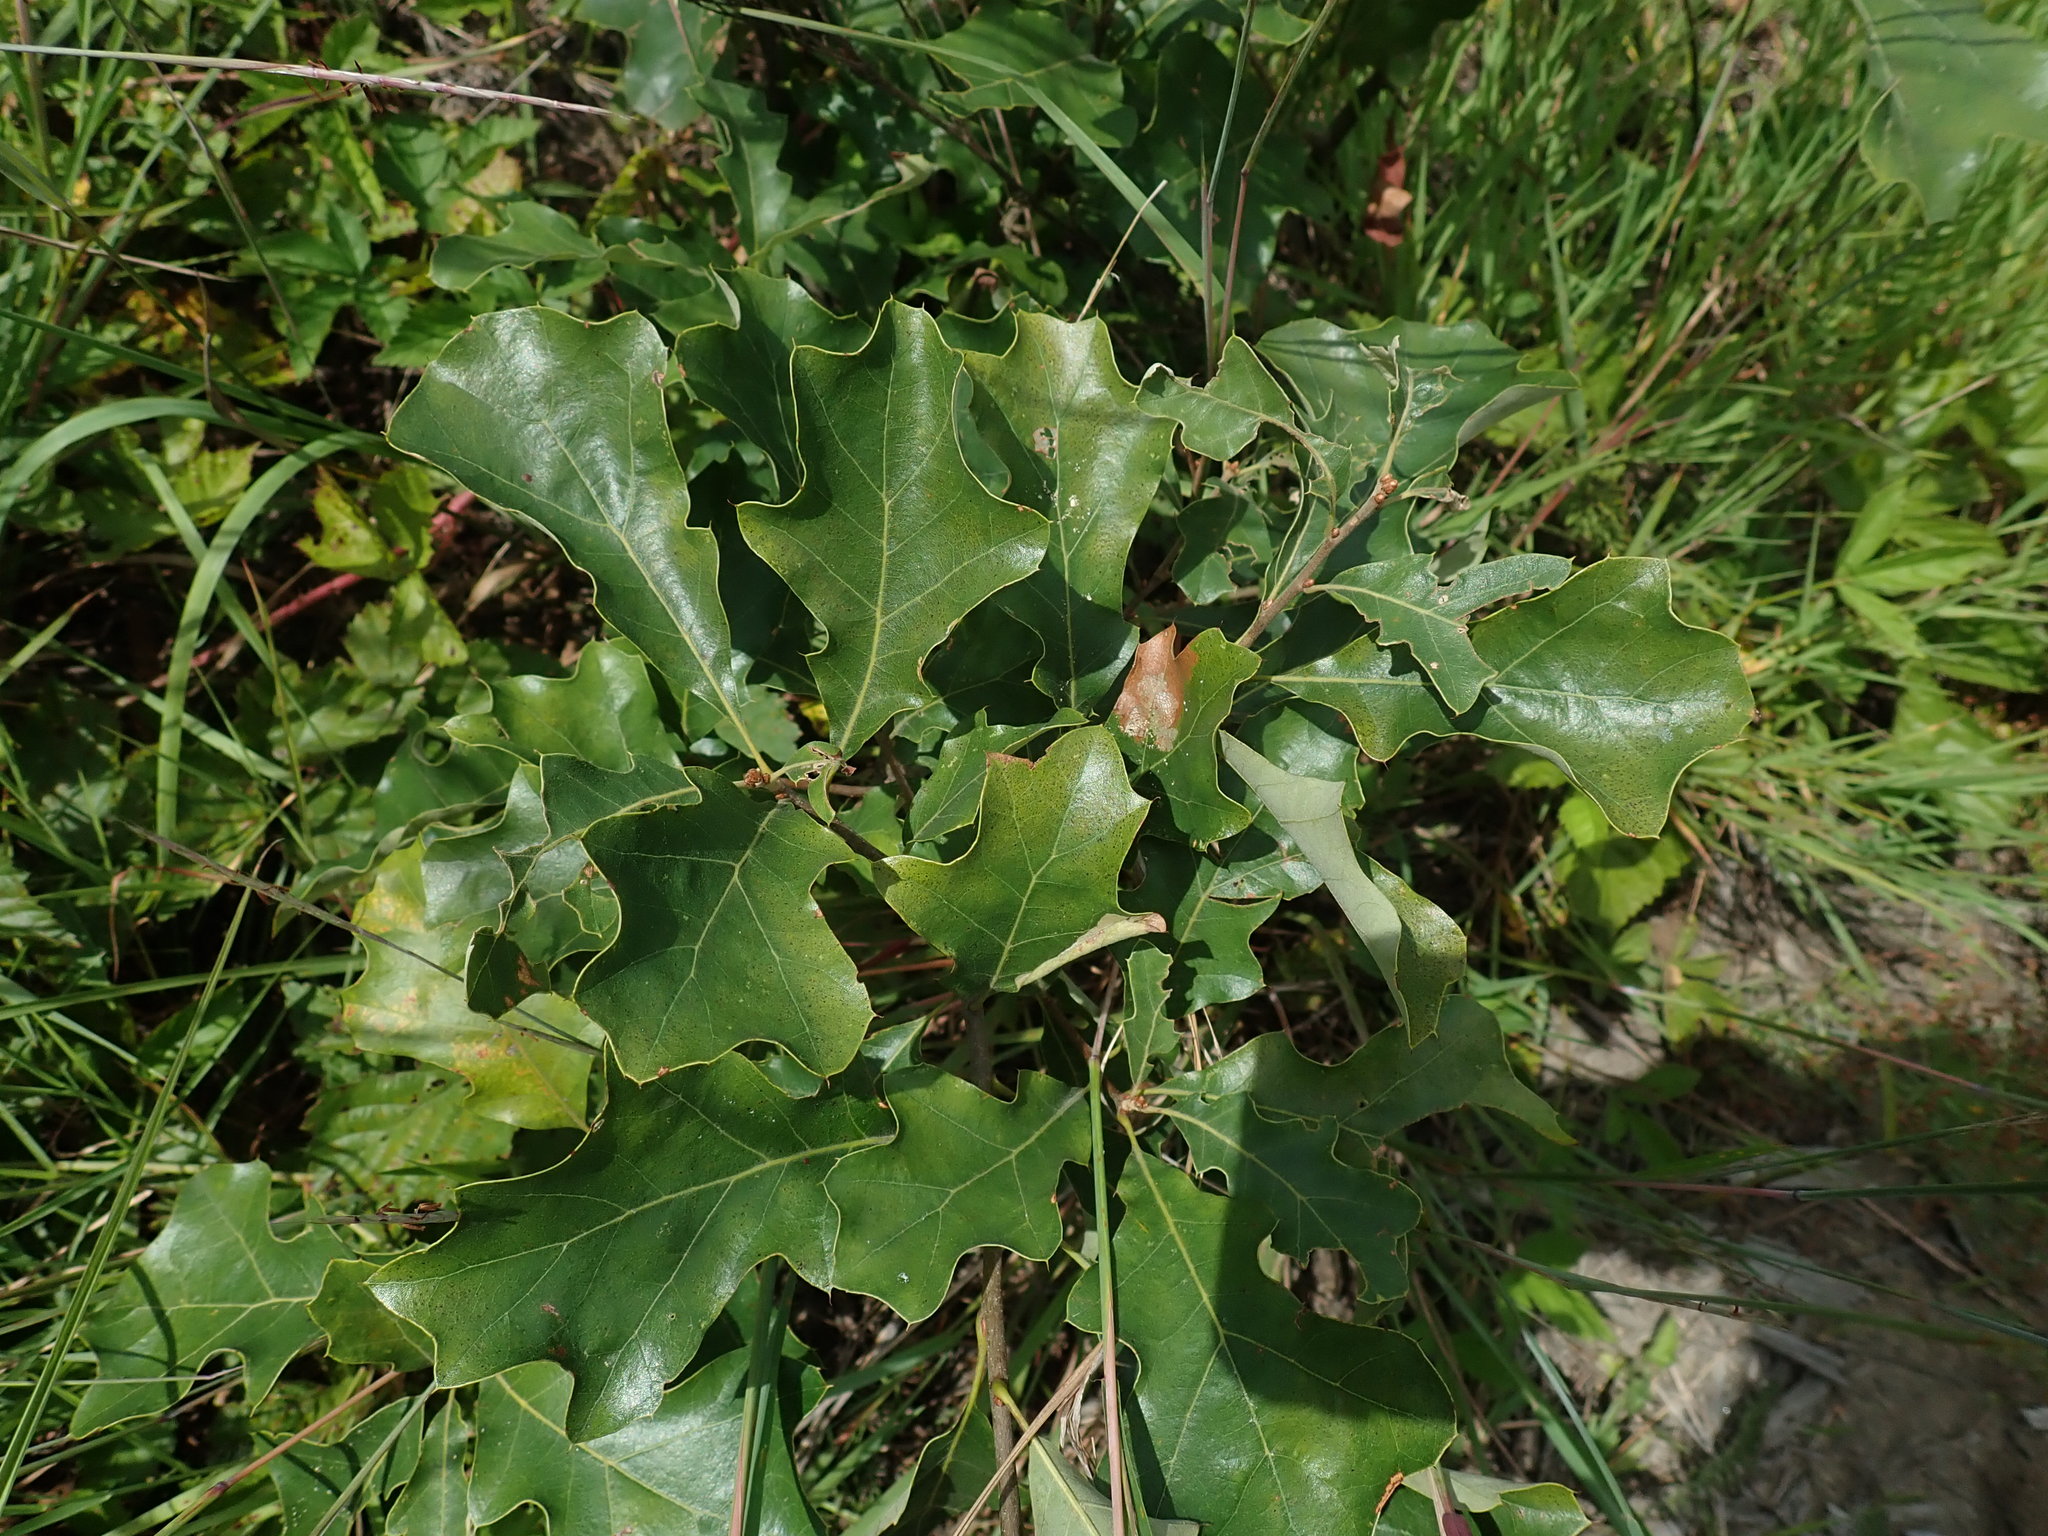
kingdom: Plantae
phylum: Tracheophyta
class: Magnoliopsida
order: Fagales
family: Fagaceae
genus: Quercus
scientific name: Quercus ilicifolia
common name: Bear oak
